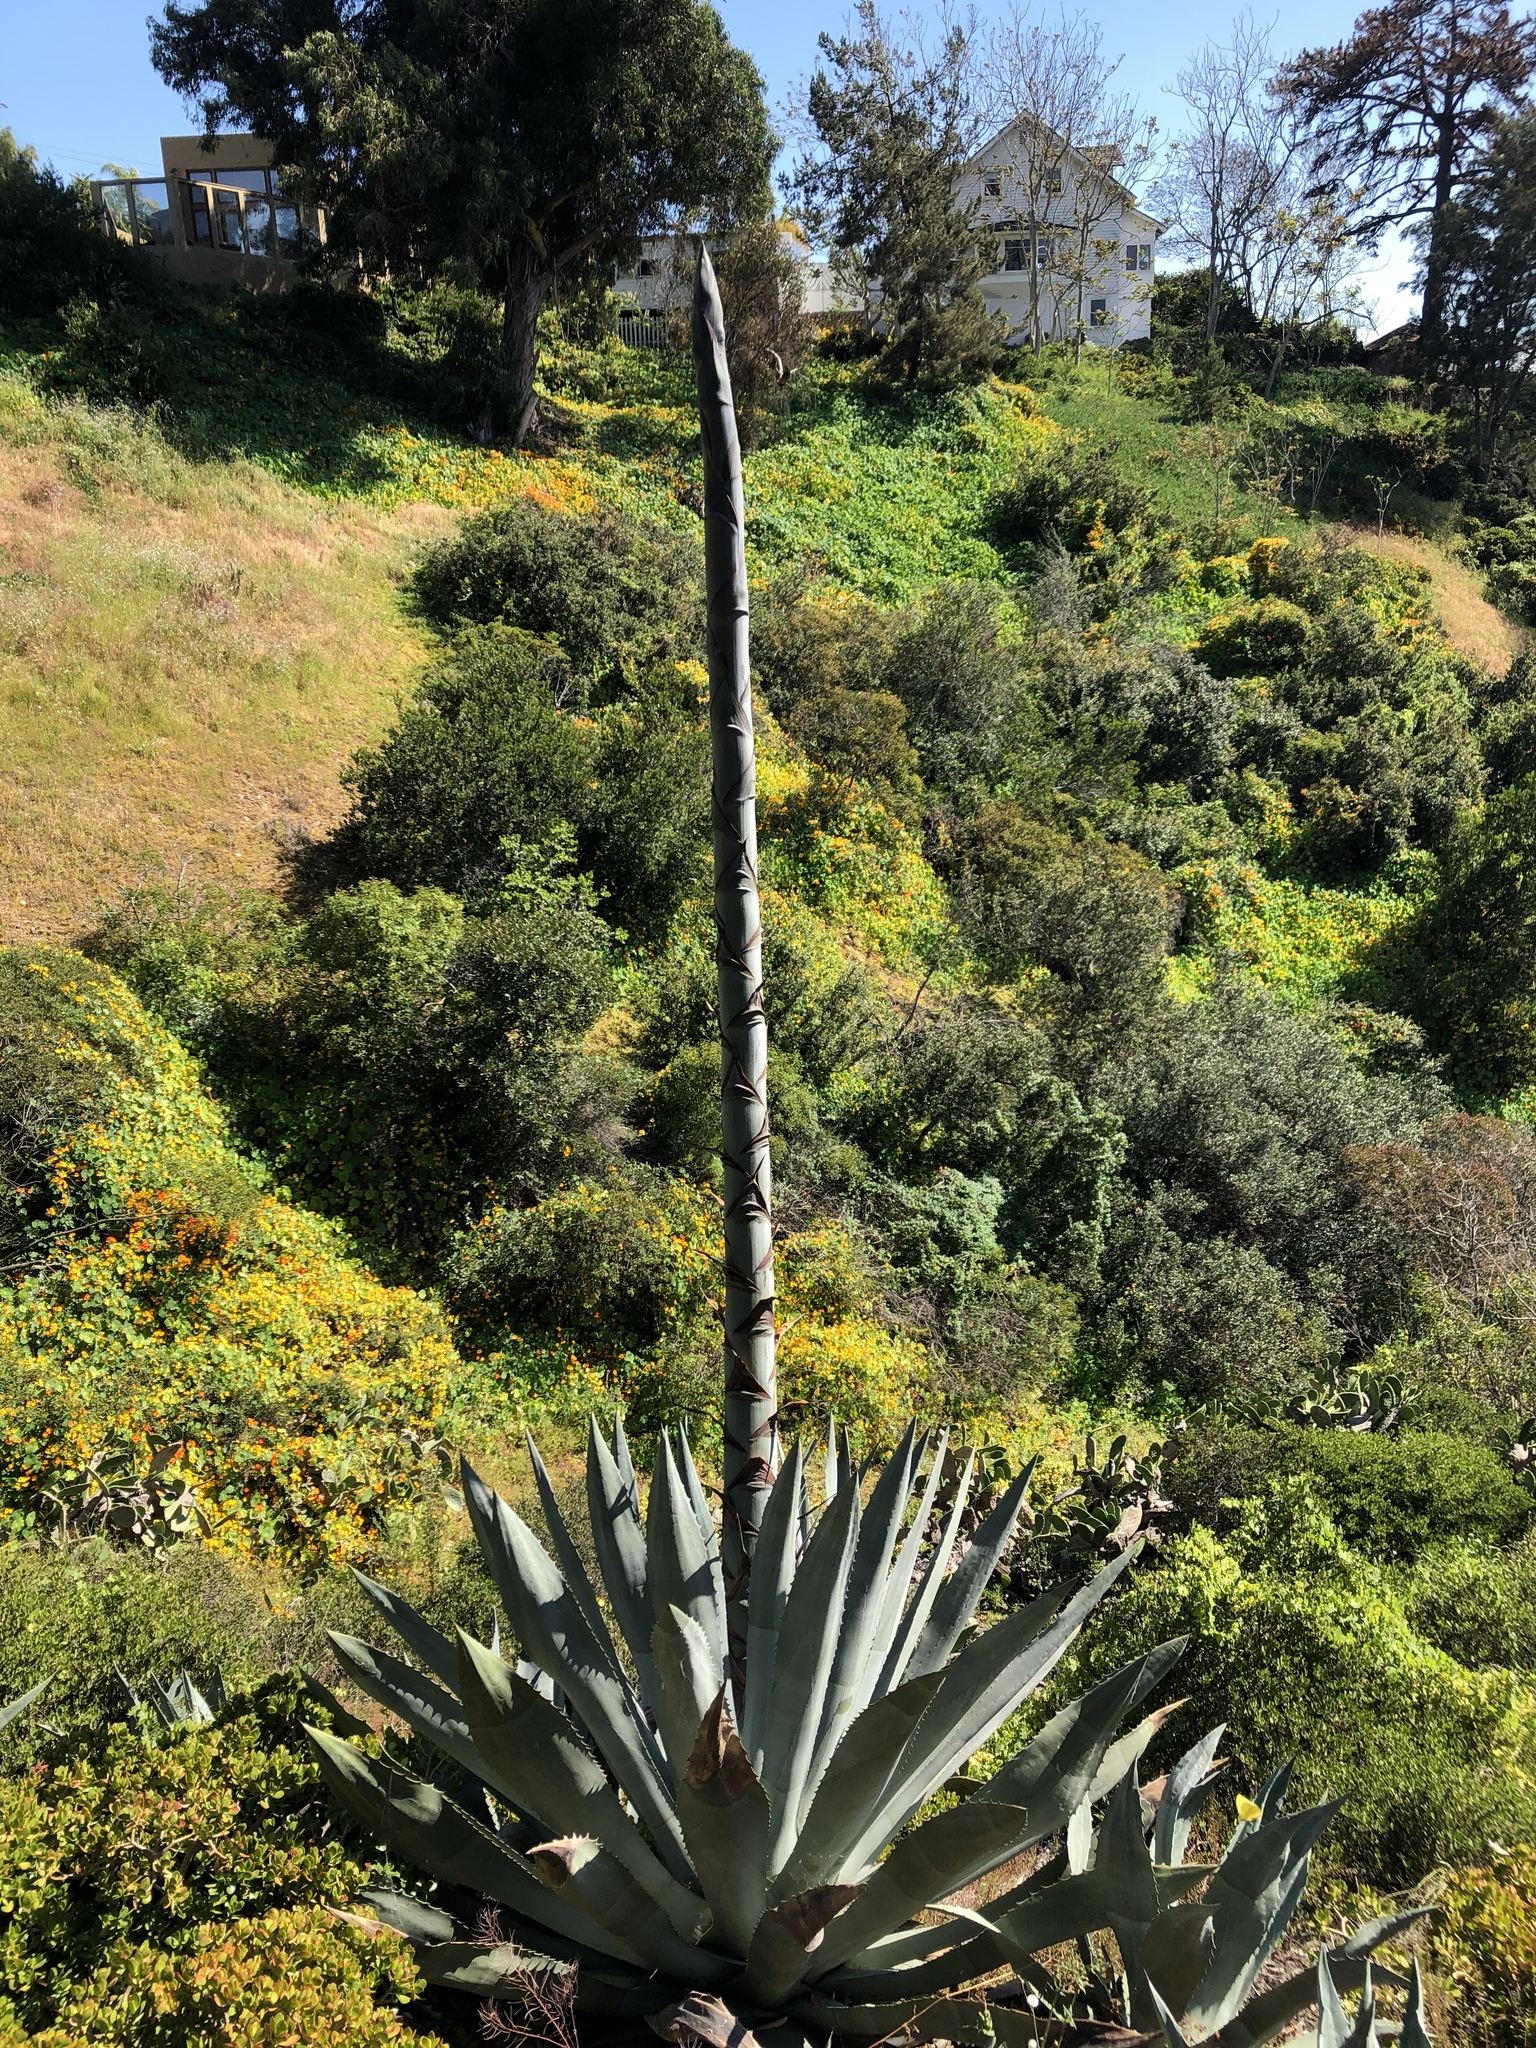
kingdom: Plantae
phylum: Tracheophyta
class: Liliopsida
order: Asparagales
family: Asparagaceae
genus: Agave
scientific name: Agave americana
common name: Centuryplant
